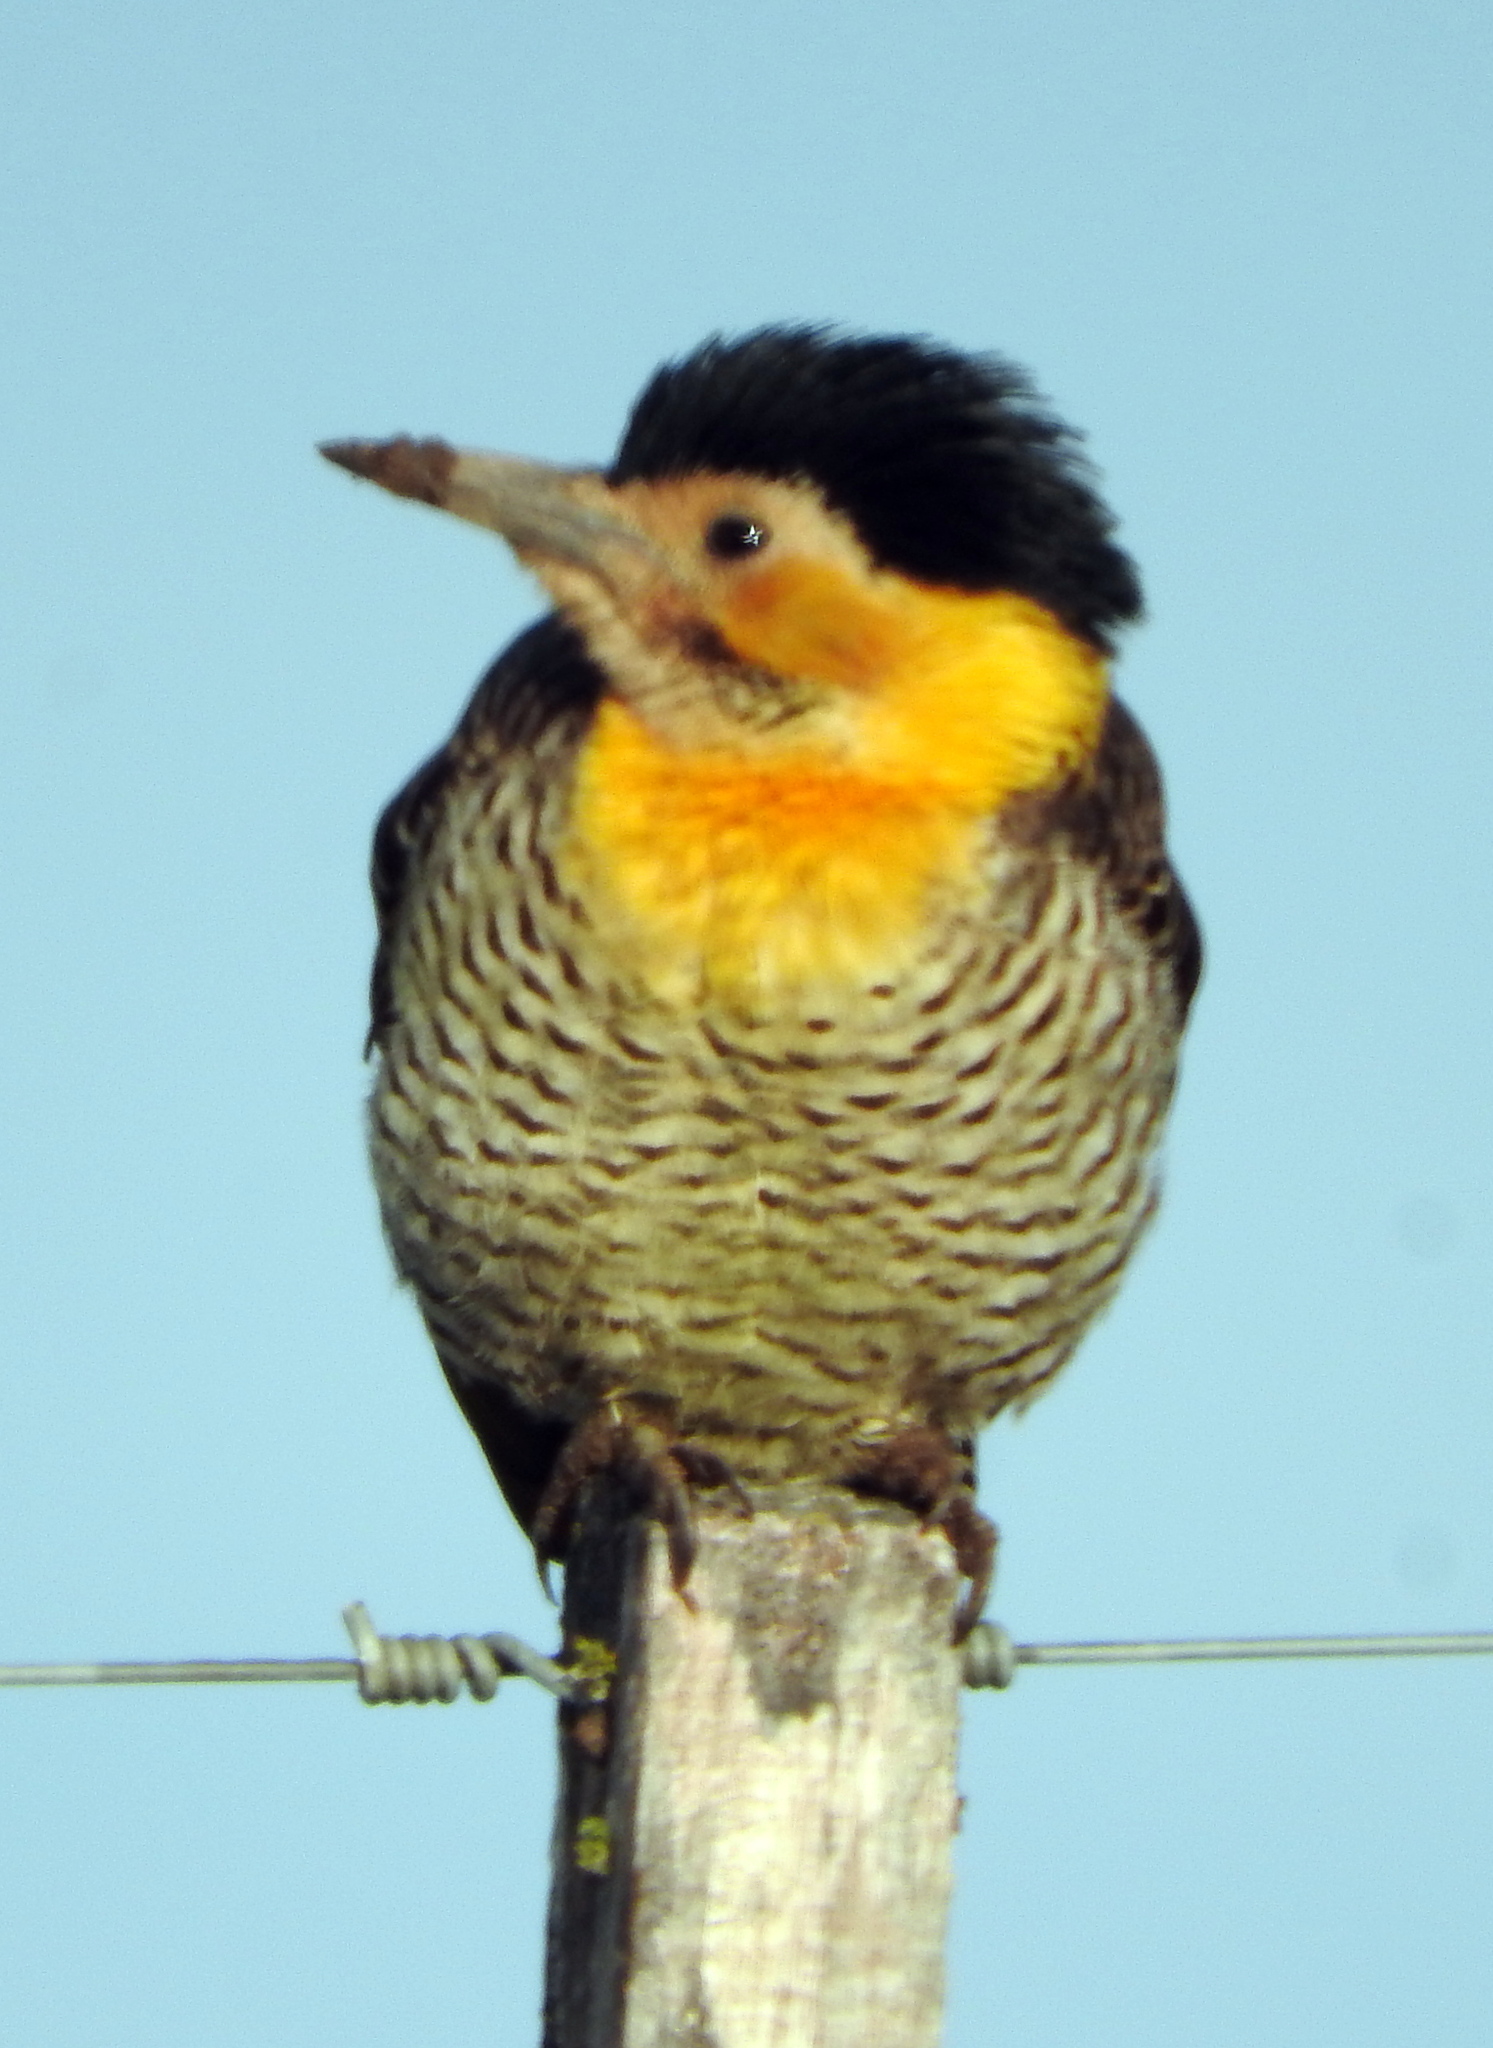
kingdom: Animalia
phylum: Chordata
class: Aves
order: Piciformes
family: Picidae
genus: Colaptes
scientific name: Colaptes campestris
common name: Campo flicker
